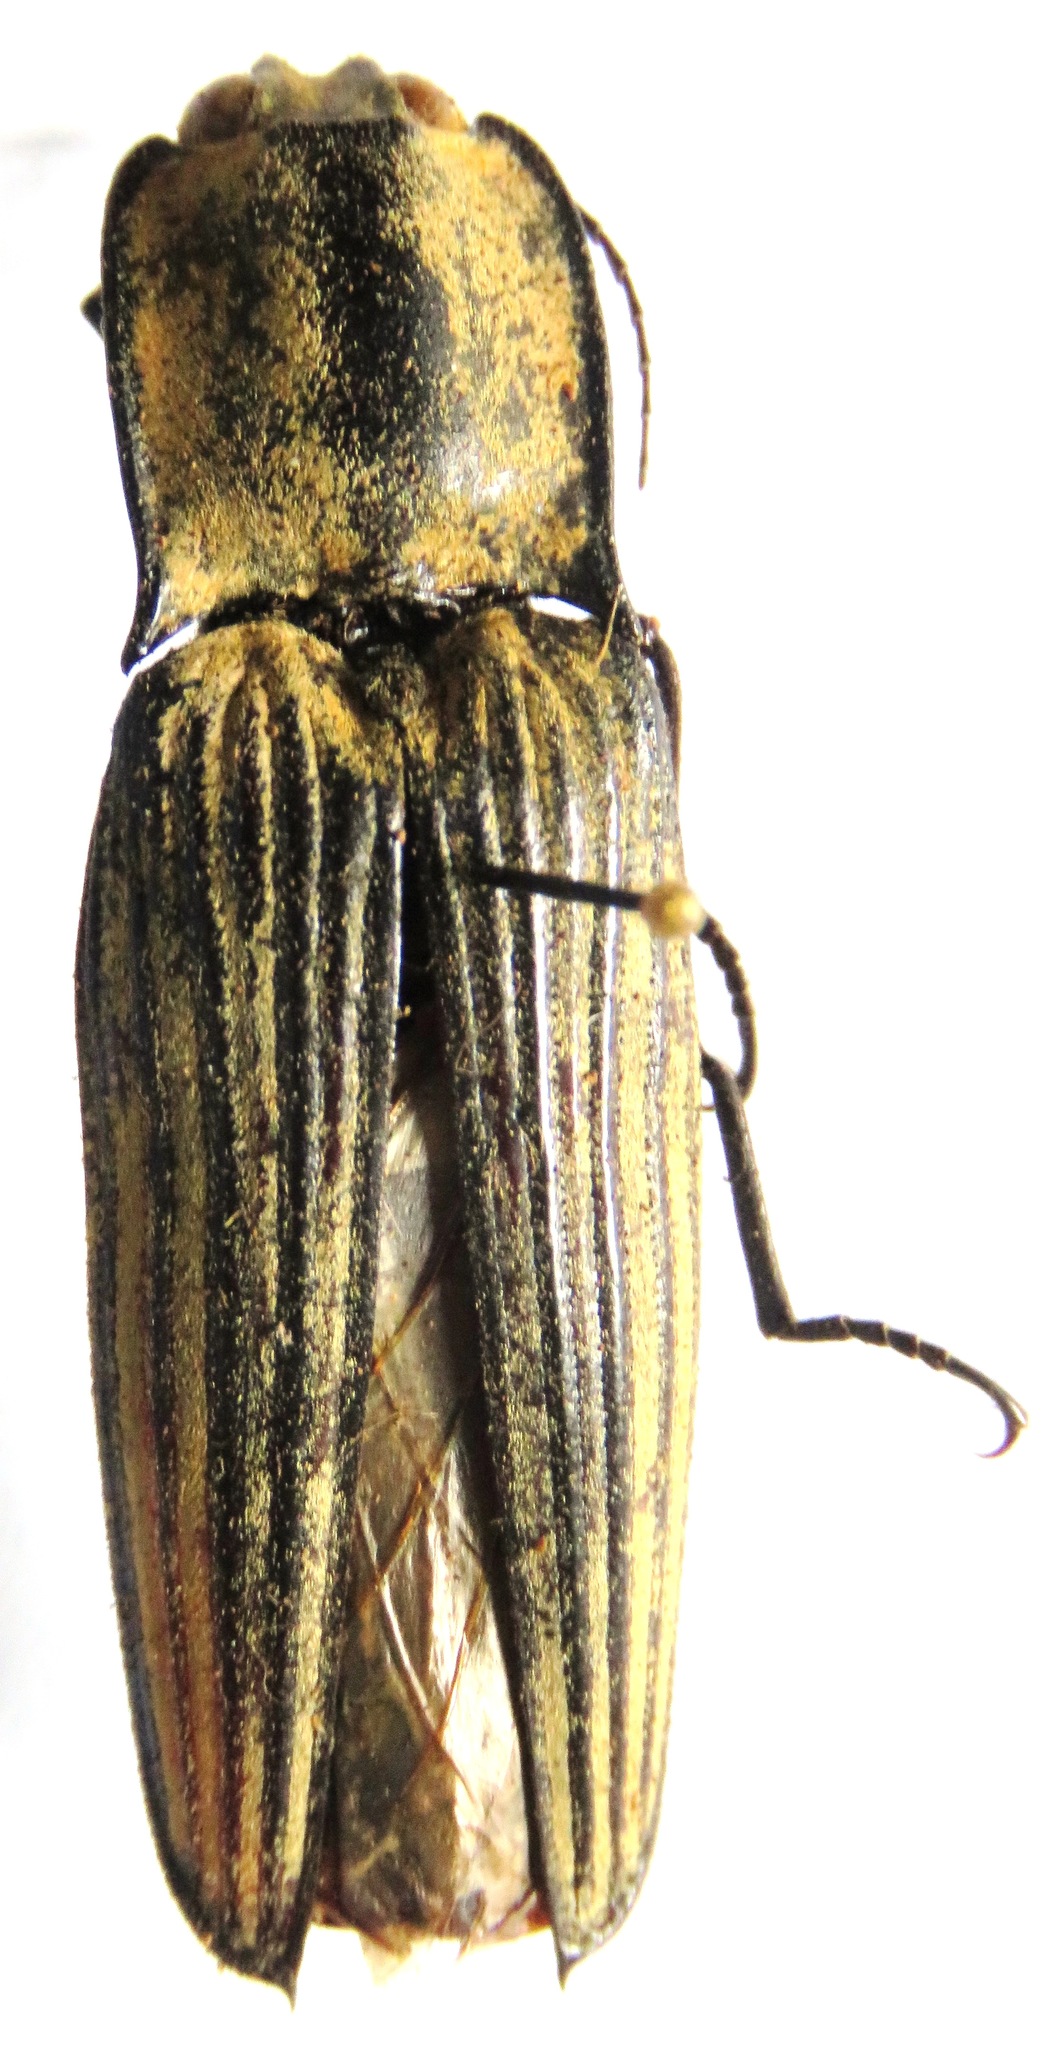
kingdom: Animalia
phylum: Arthropoda
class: Insecta
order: Coleoptera
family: Elateridae
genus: Alaus
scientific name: Alaus
